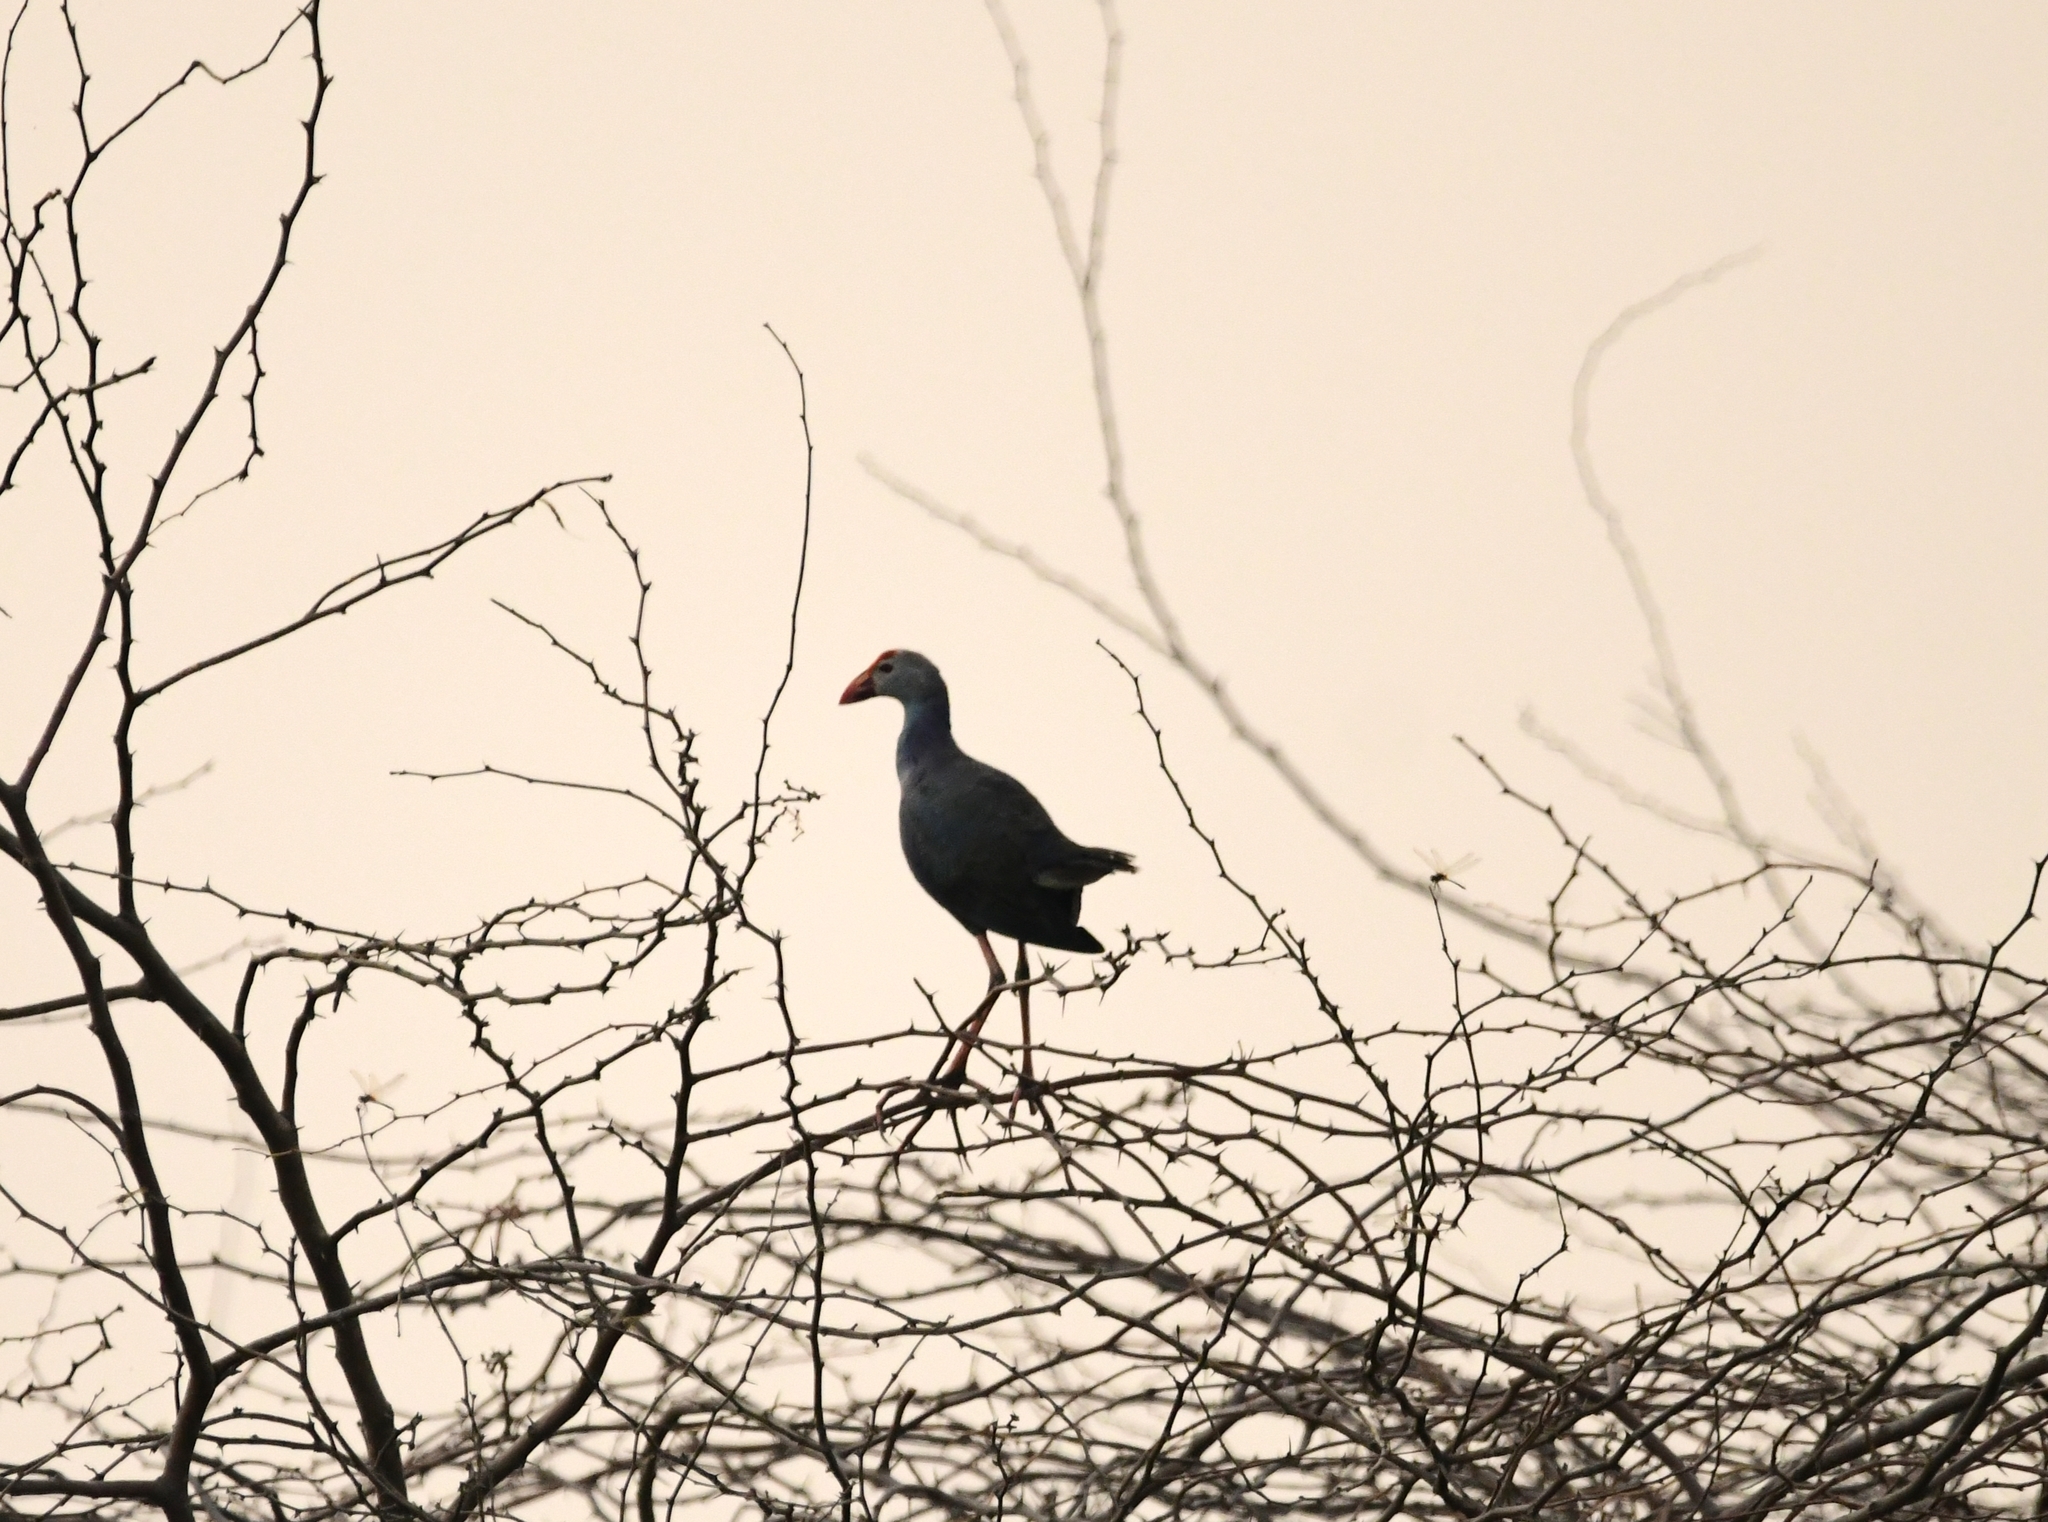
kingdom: Animalia
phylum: Chordata
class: Aves
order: Gruiformes
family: Rallidae
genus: Porphyrio
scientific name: Porphyrio porphyrio
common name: Purple swamphen
